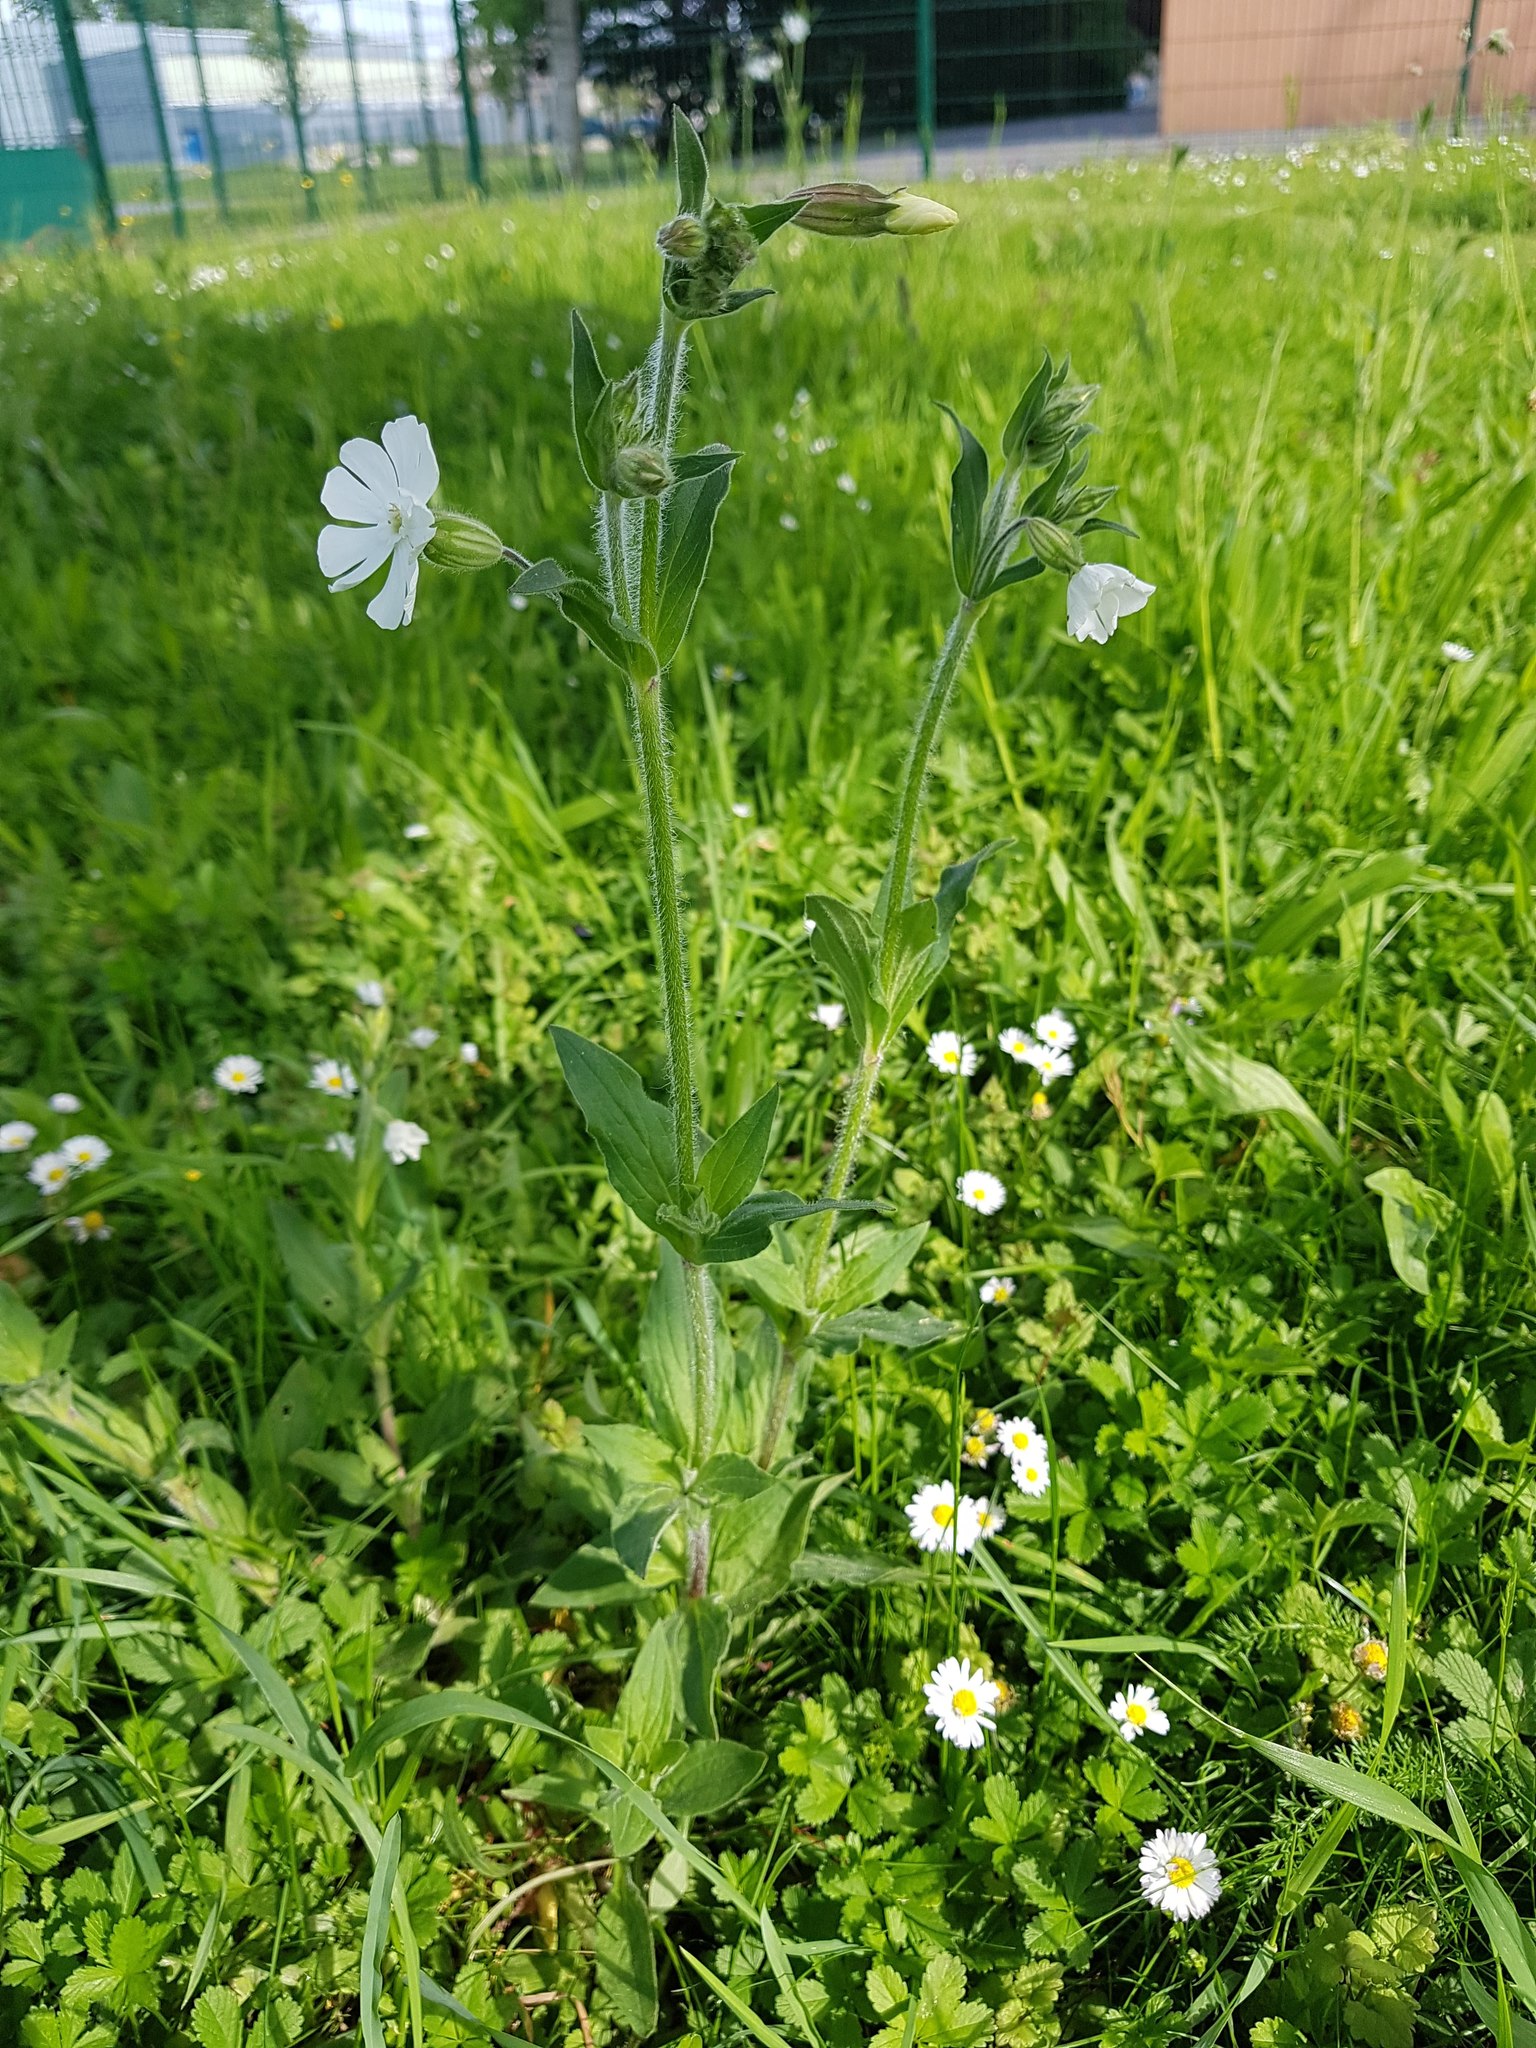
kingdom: Plantae
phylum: Tracheophyta
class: Magnoliopsida
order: Caryophyllales
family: Caryophyllaceae
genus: Silene
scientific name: Silene latifolia
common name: White campion
